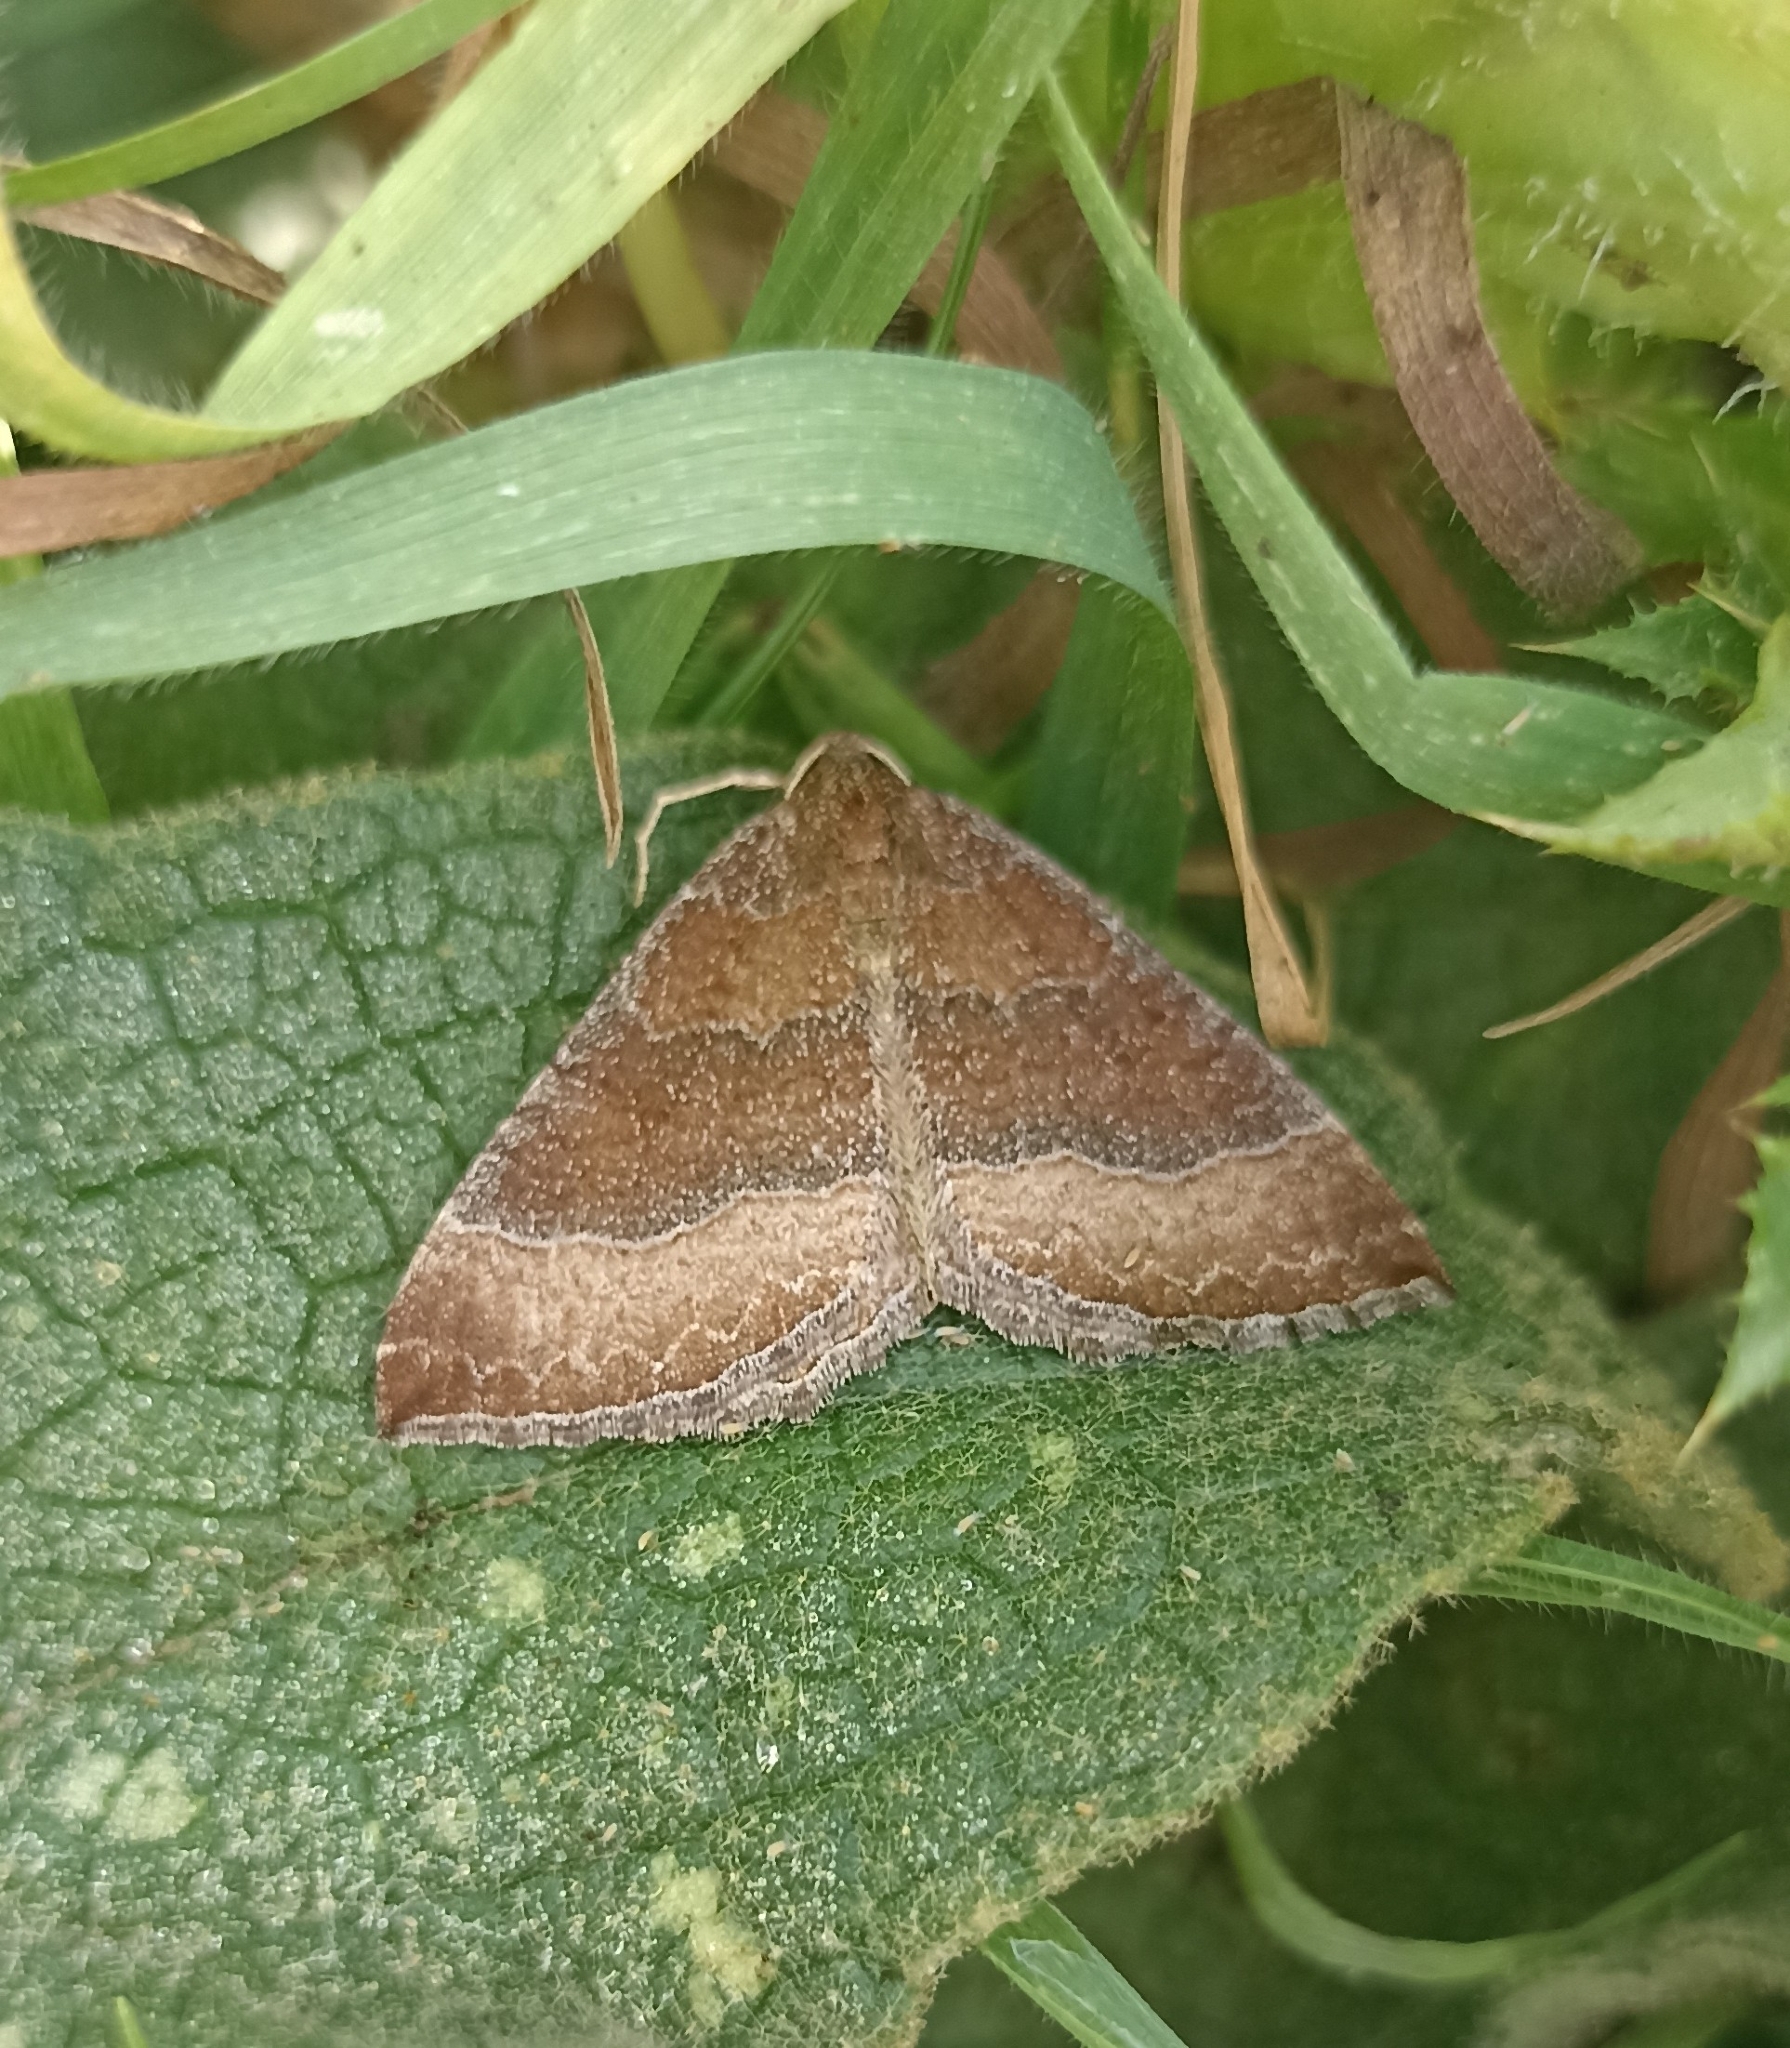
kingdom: Animalia
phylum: Arthropoda
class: Insecta
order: Lepidoptera
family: Geometridae
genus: Larentia
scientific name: Larentia clavaria
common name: Mallow
